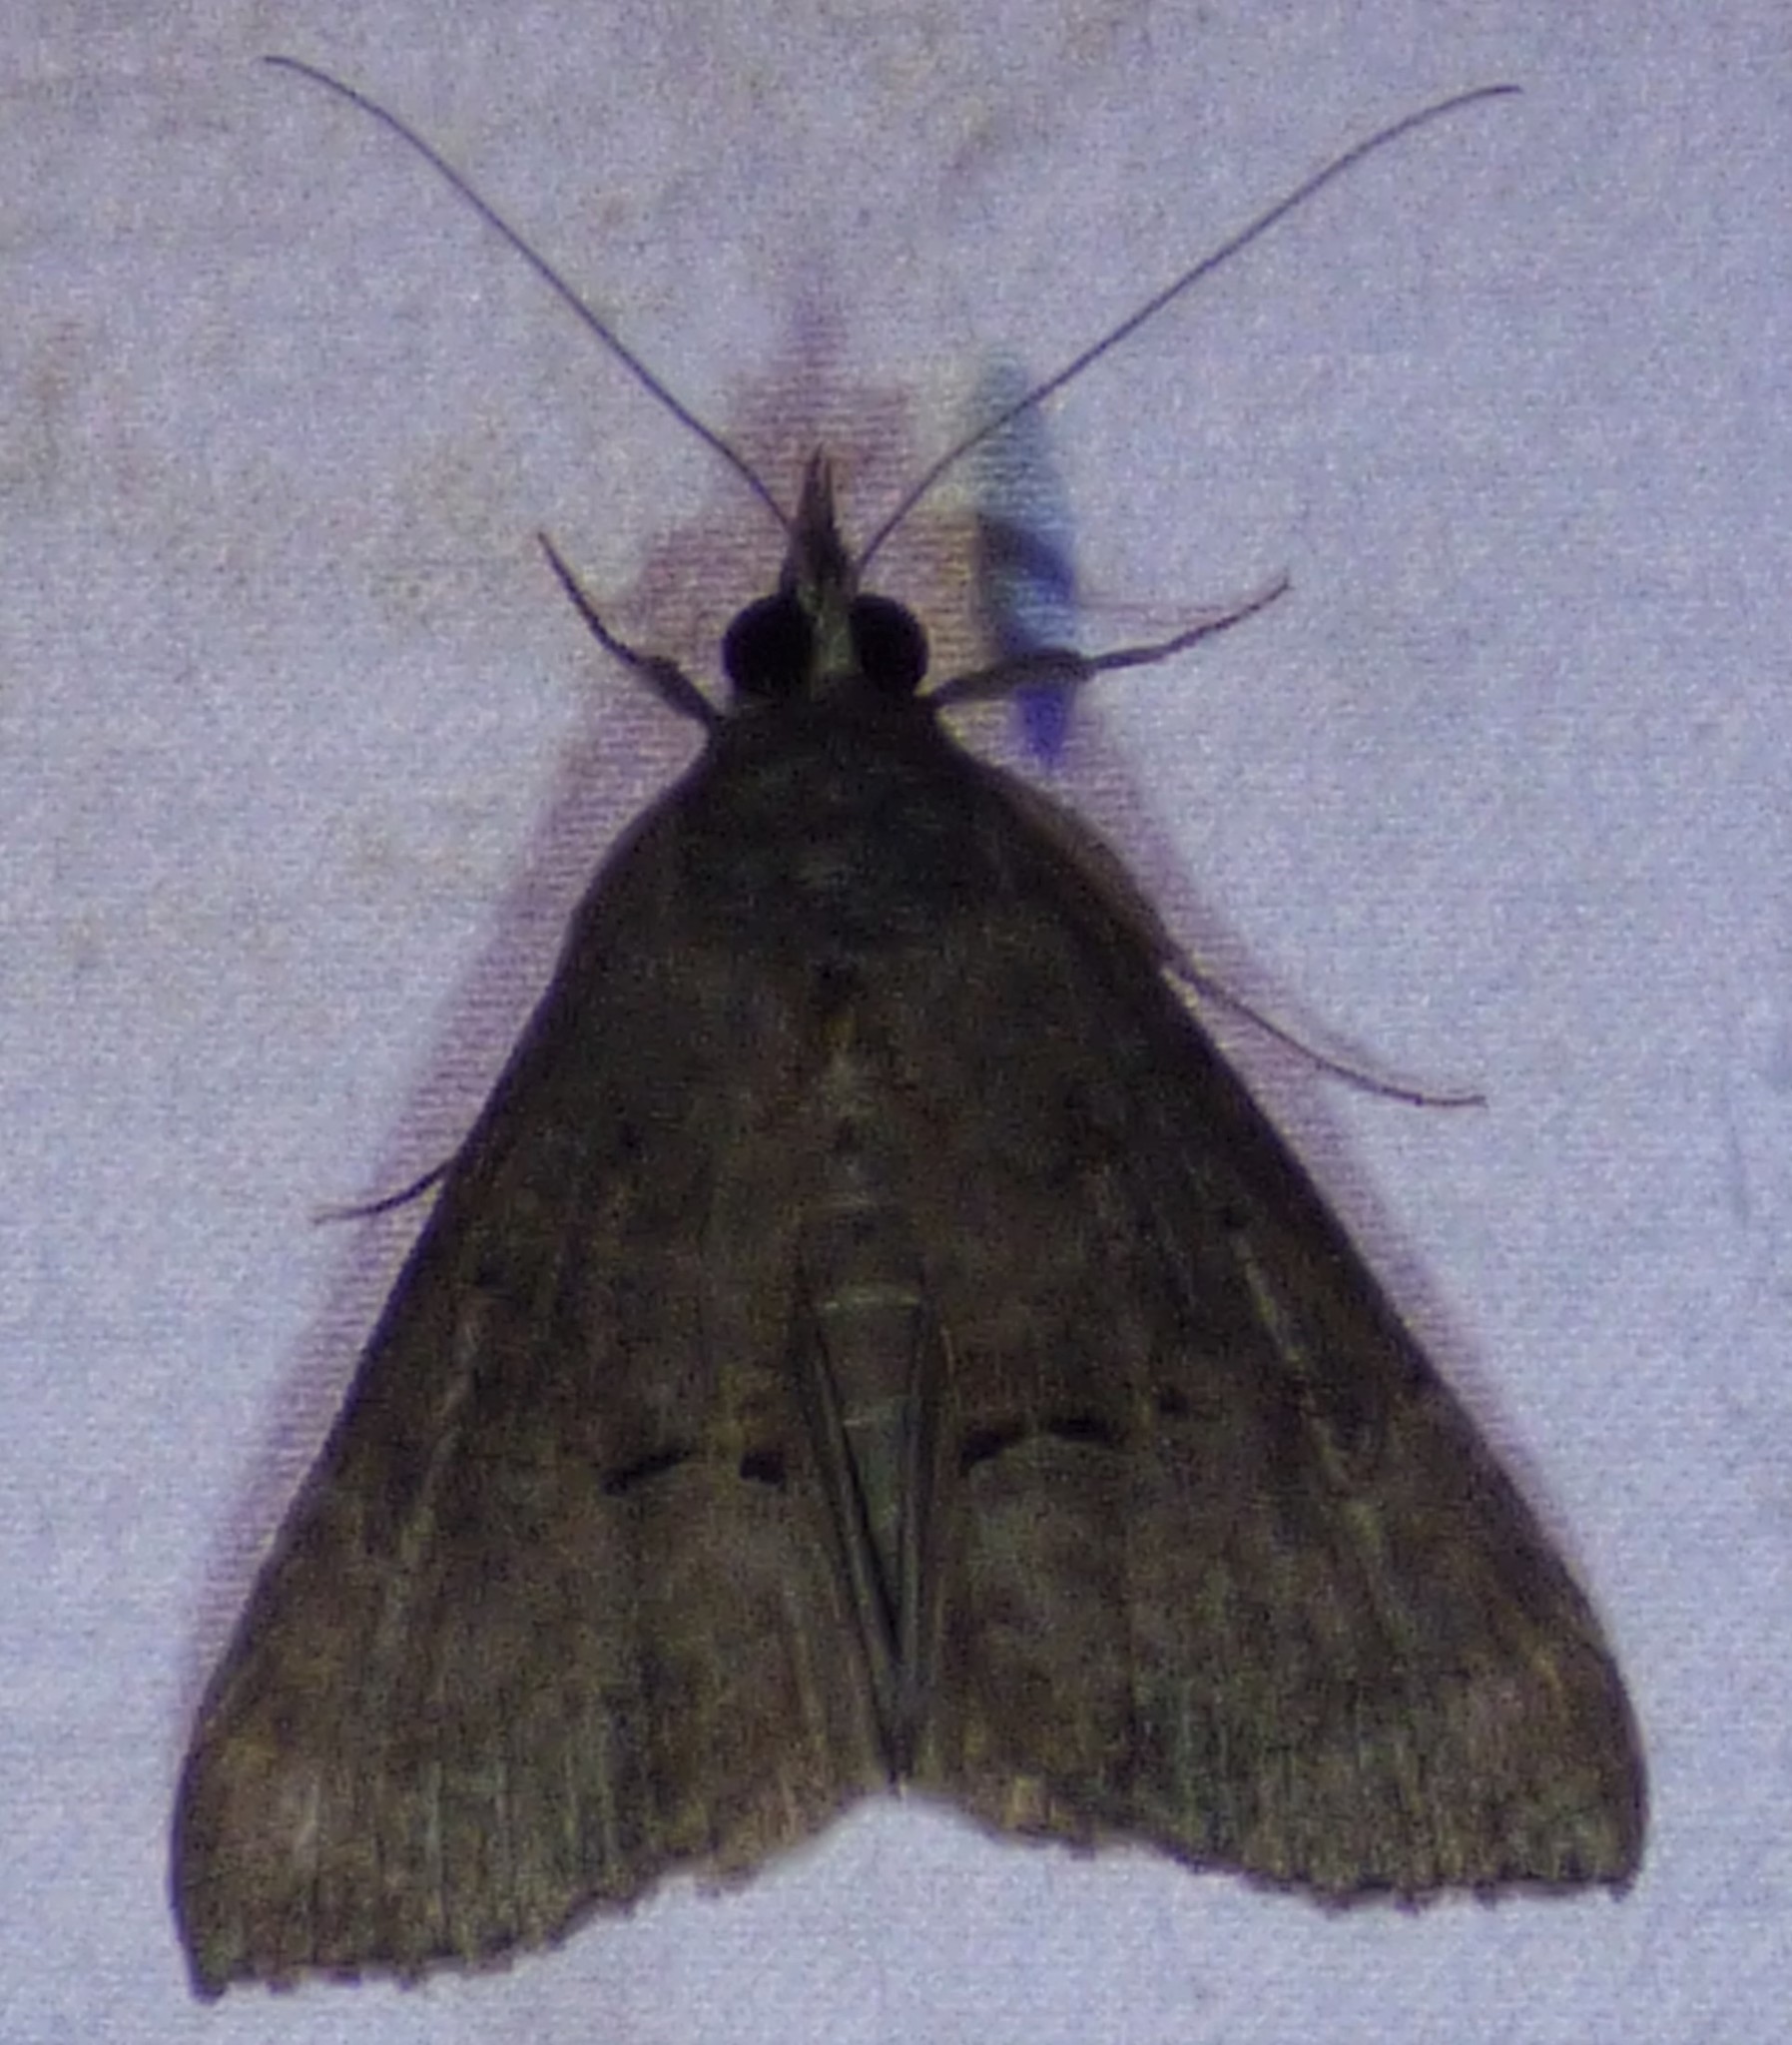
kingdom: Animalia
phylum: Arthropoda
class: Insecta
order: Lepidoptera
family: Erebidae
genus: Hypena
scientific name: Hypena scabra
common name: Green cloverworm
